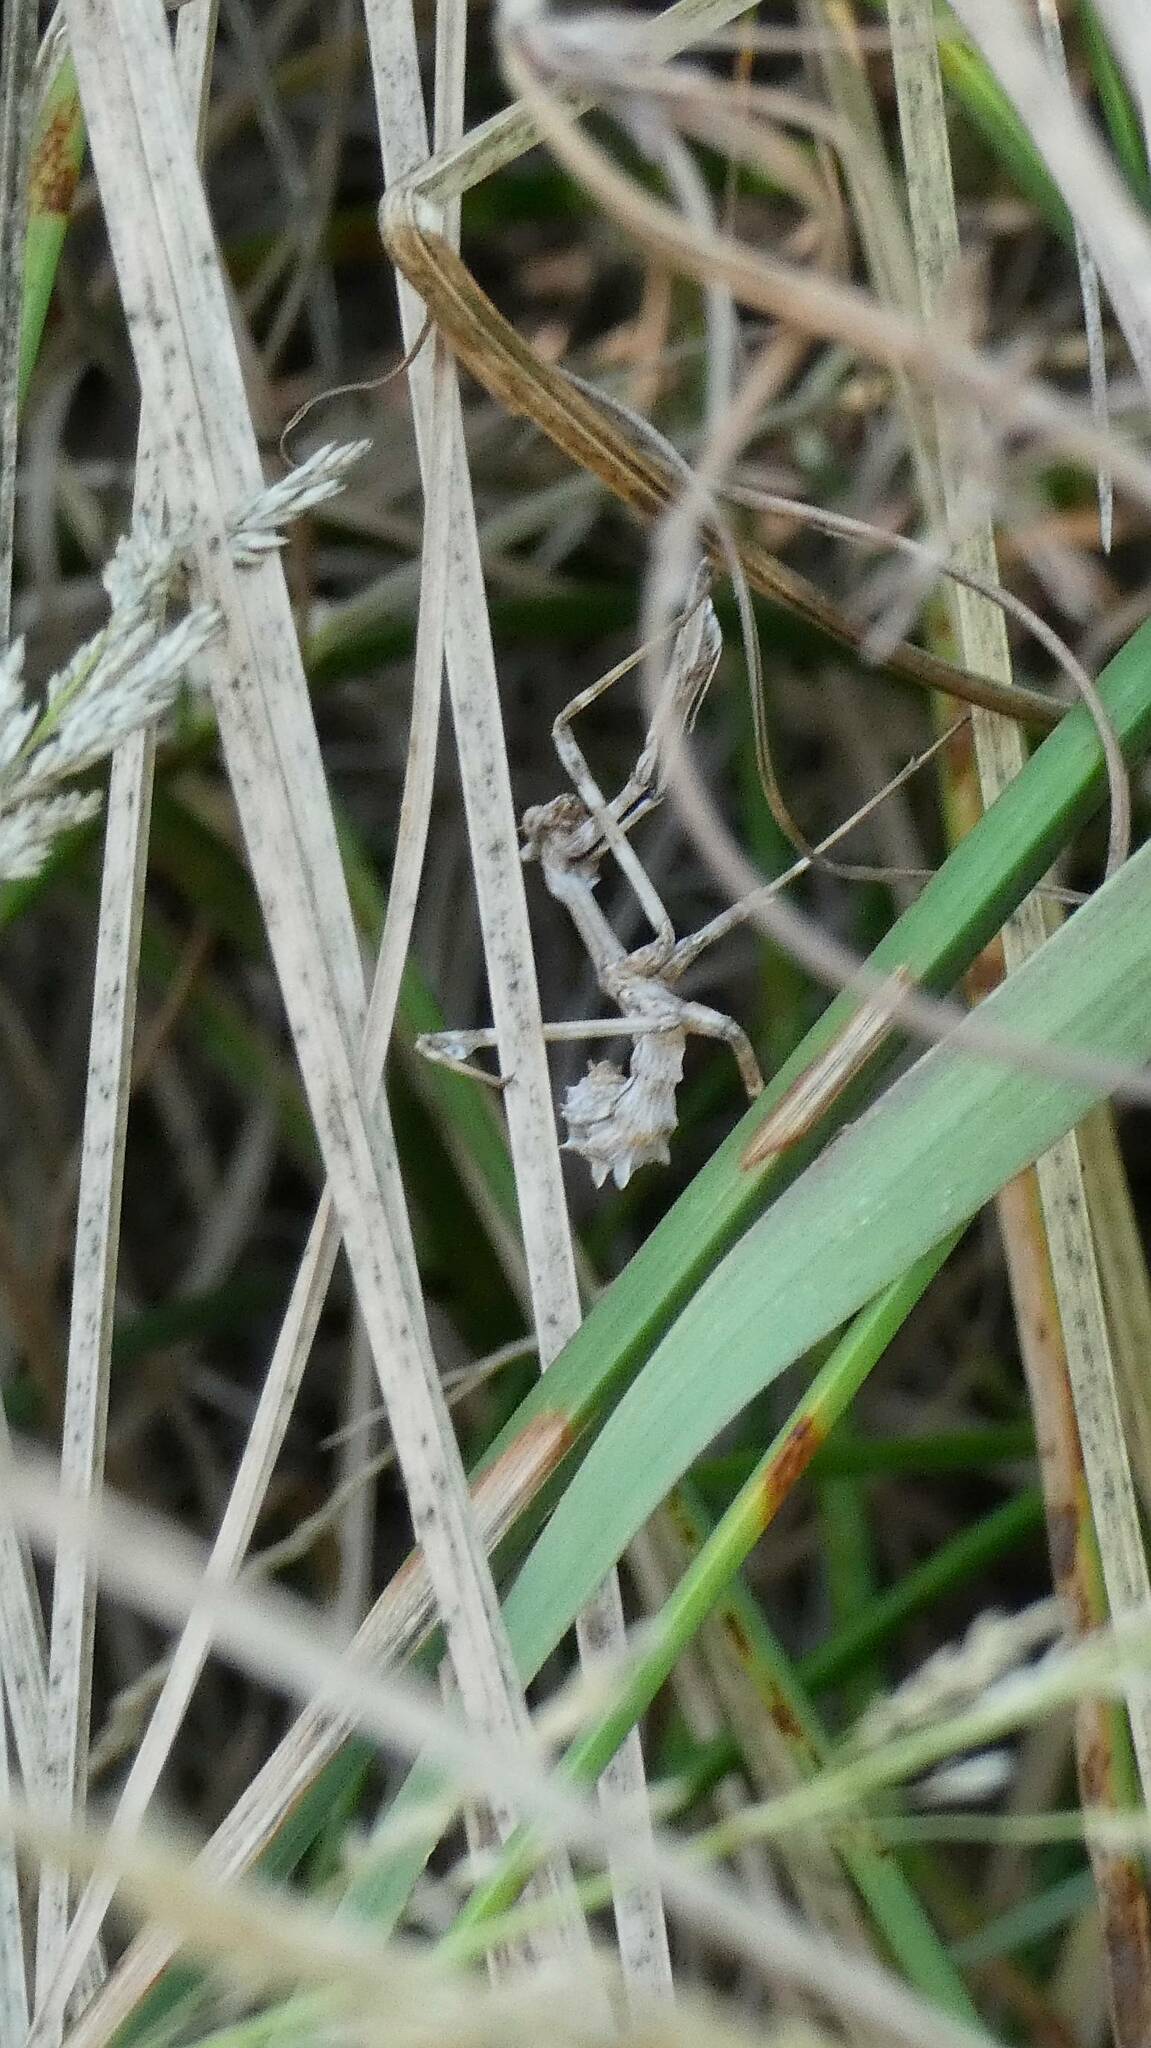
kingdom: Animalia
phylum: Arthropoda
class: Insecta
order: Mantodea
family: Empusidae
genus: Empusa
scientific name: Empusa pennata
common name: Conehead mantis
